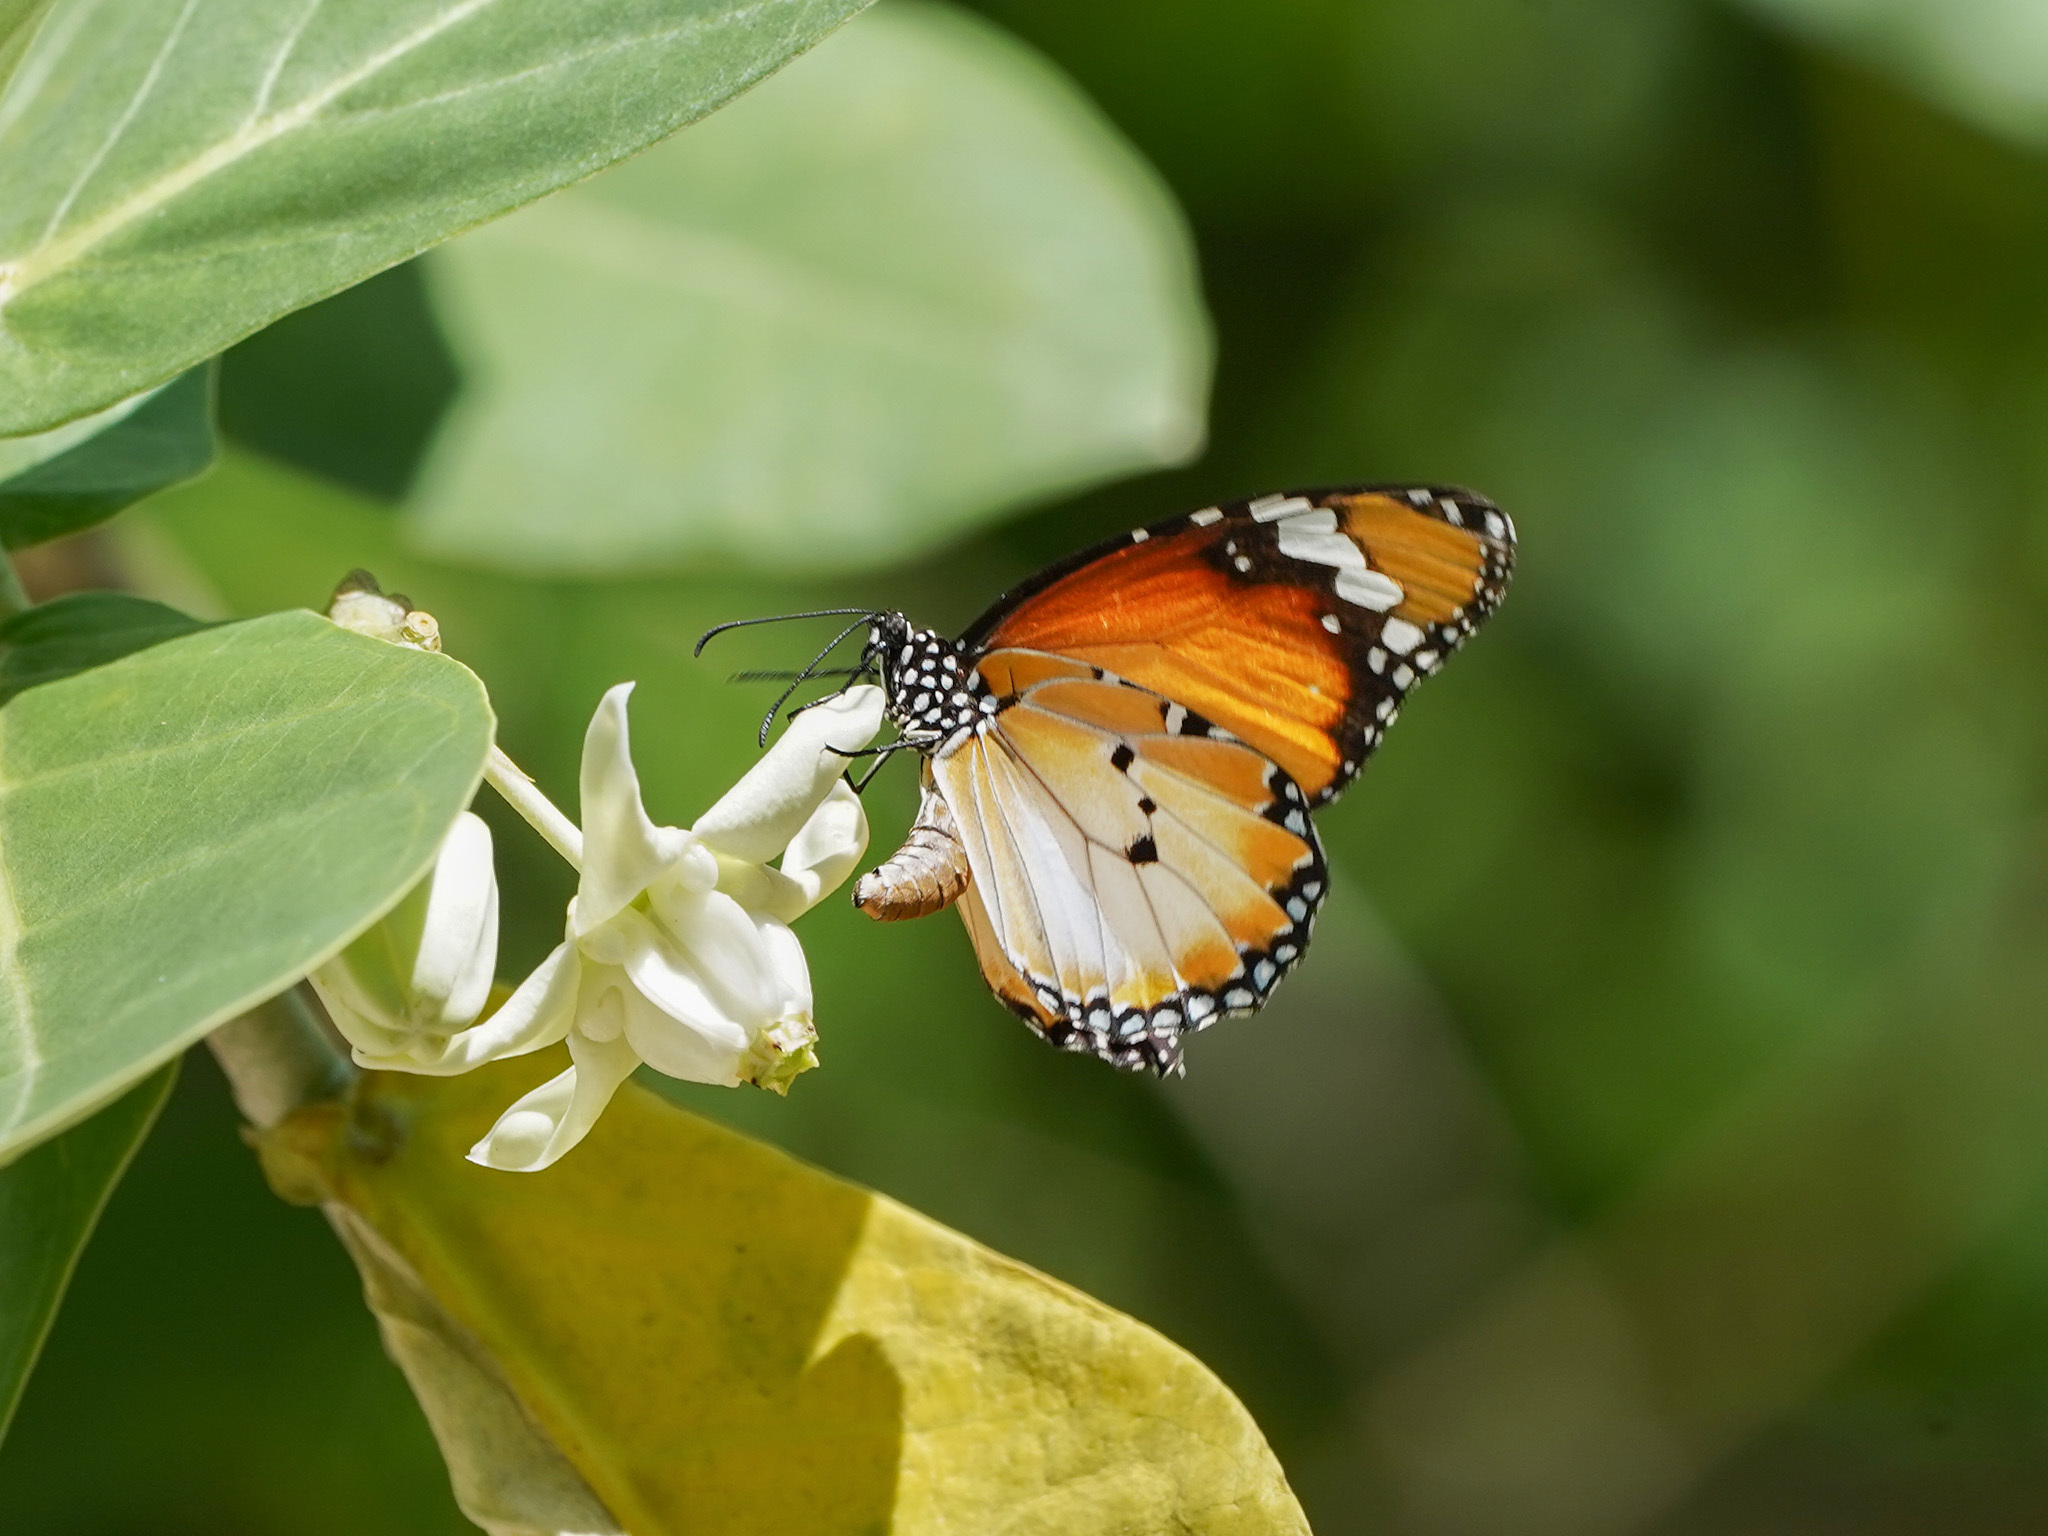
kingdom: Animalia
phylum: Arthropoda
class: Insecta
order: Lepidoptera
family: Nymphalidae
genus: Danaus
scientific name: Danaus chrysippus
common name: Plain tiger
